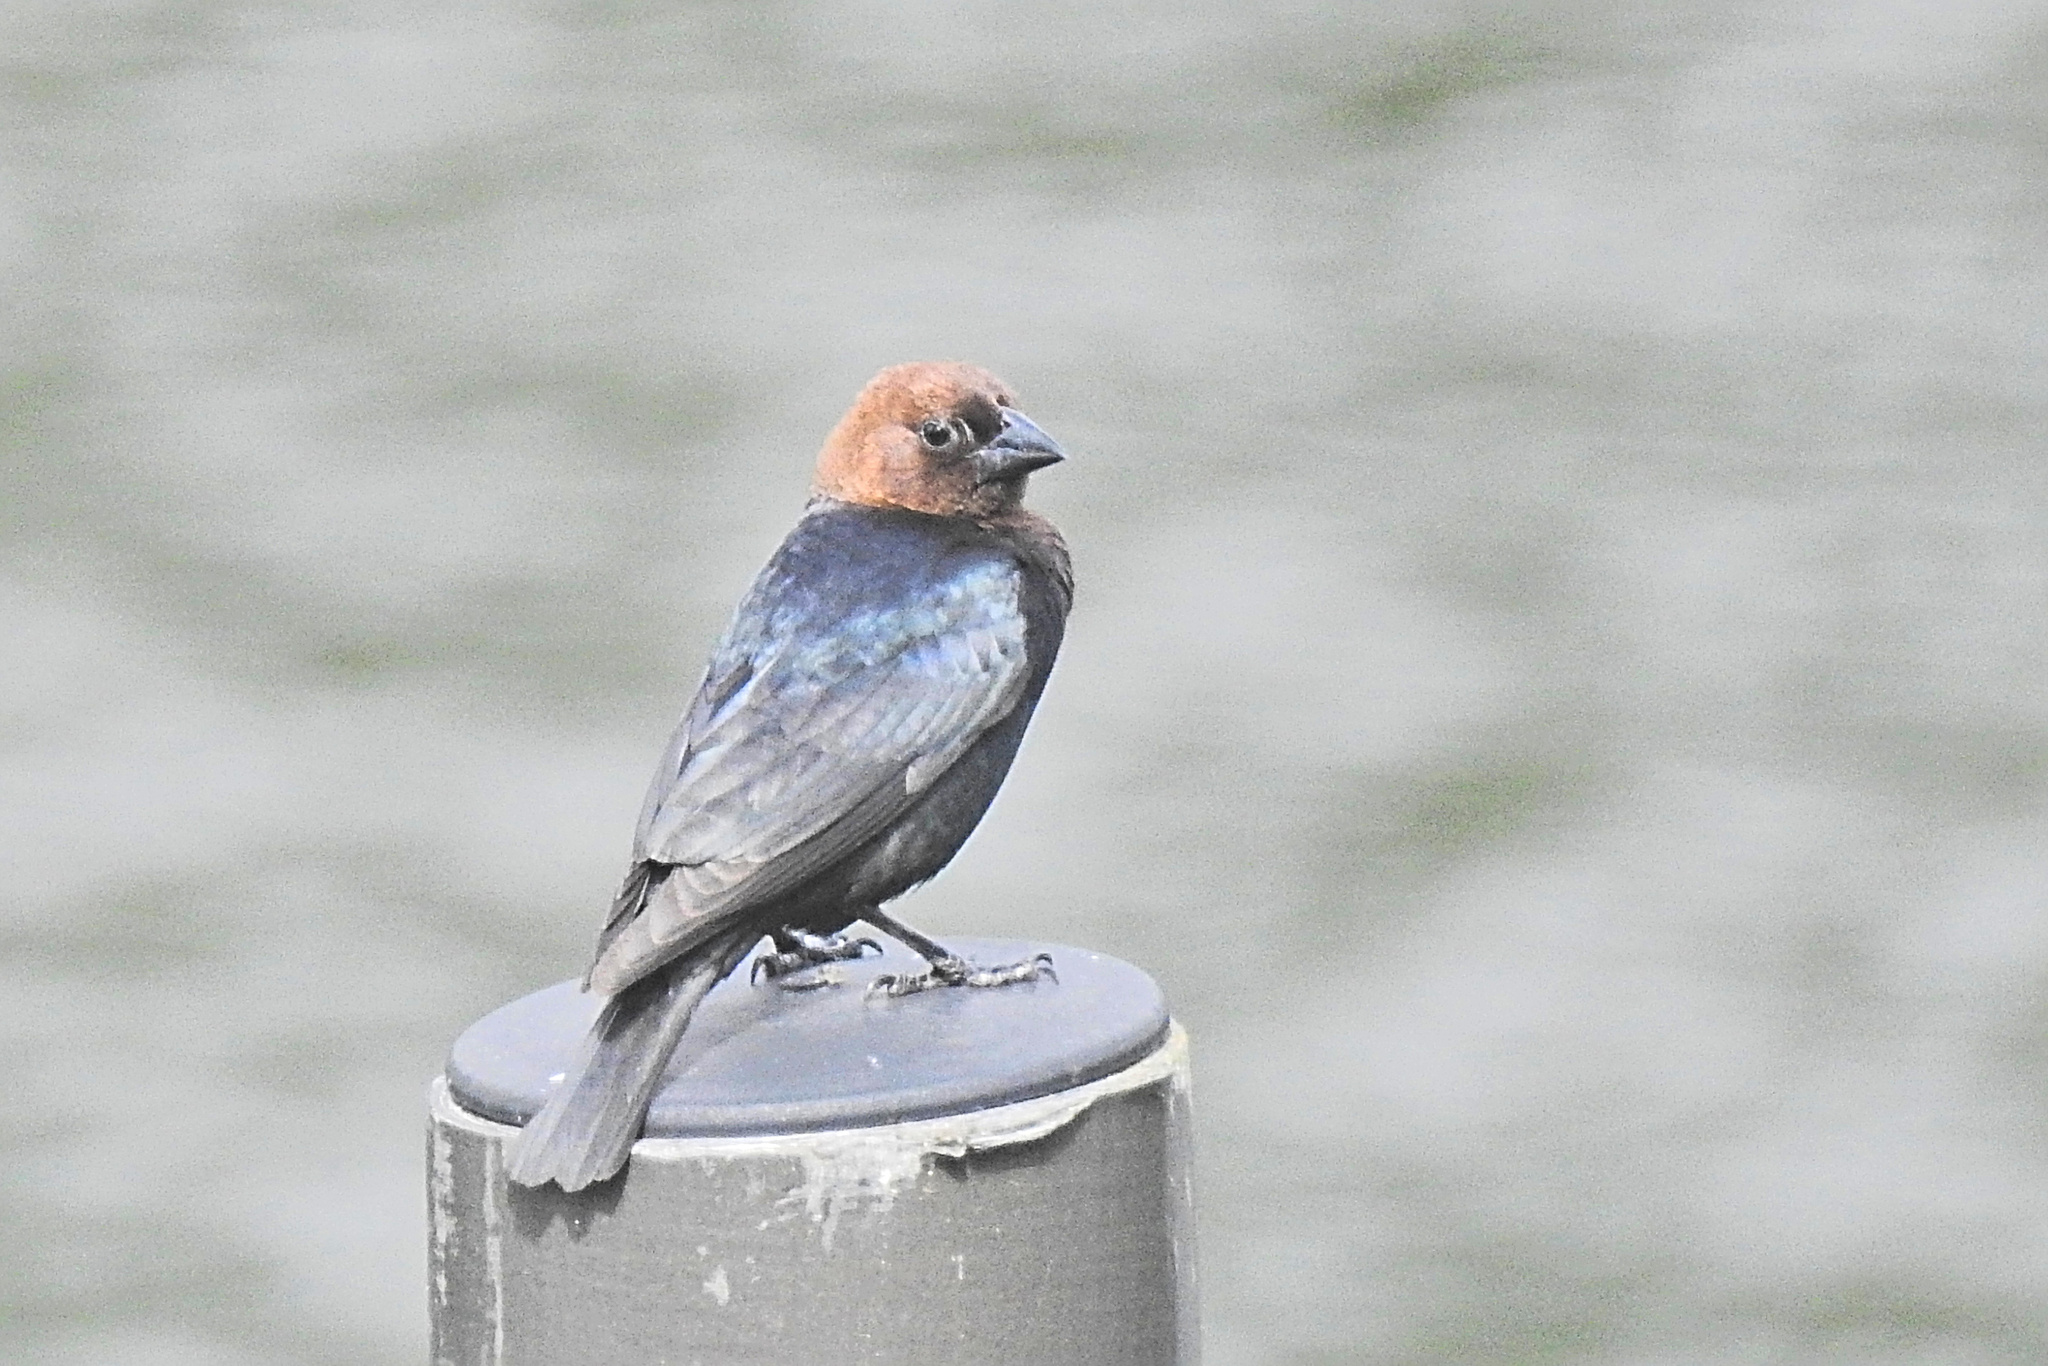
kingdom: Animalia
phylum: Chordata
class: Aves
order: Passeriformes
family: Icteridae
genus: Molothrus
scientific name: Molothrus ater
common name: Brown-headed cowbird
